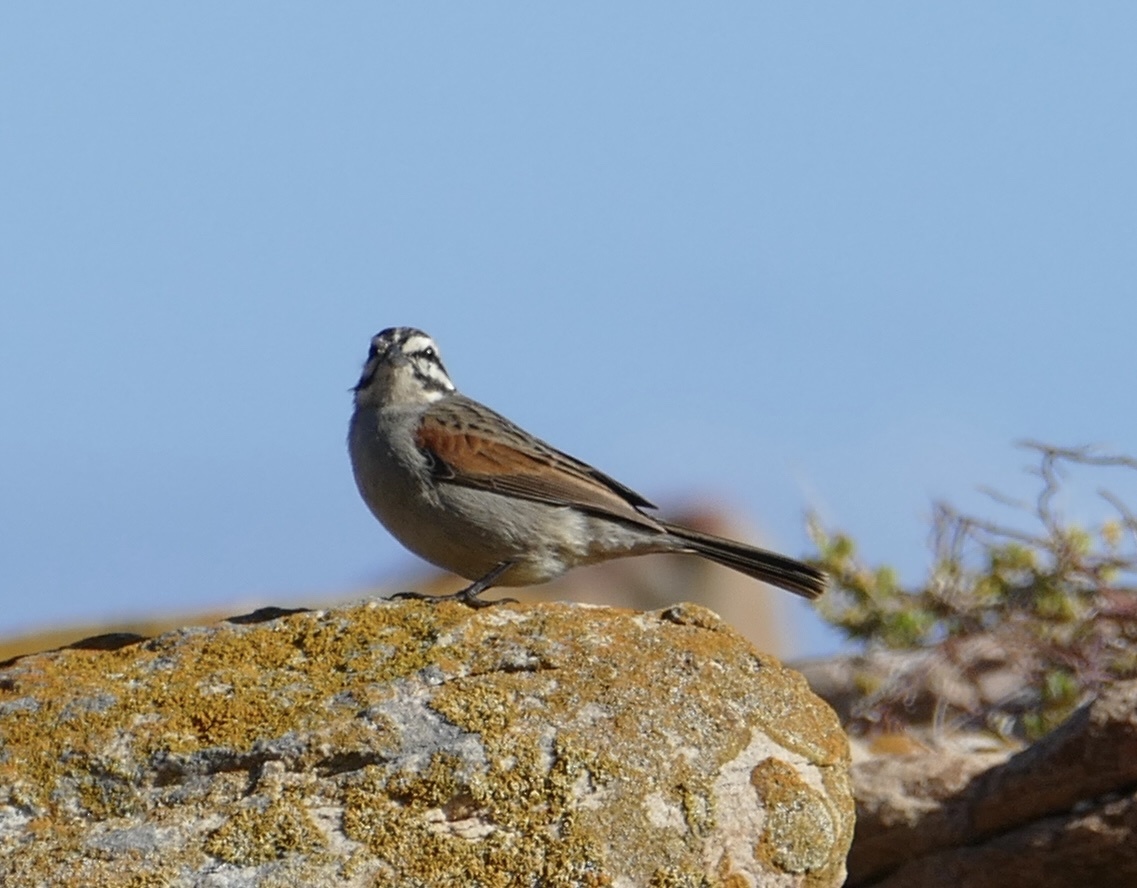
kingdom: Animalia
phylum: Chordata
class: Aves
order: Passeriformes
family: Emberizidae
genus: Emberiza
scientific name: Emberiza capensis
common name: Cape bunting
